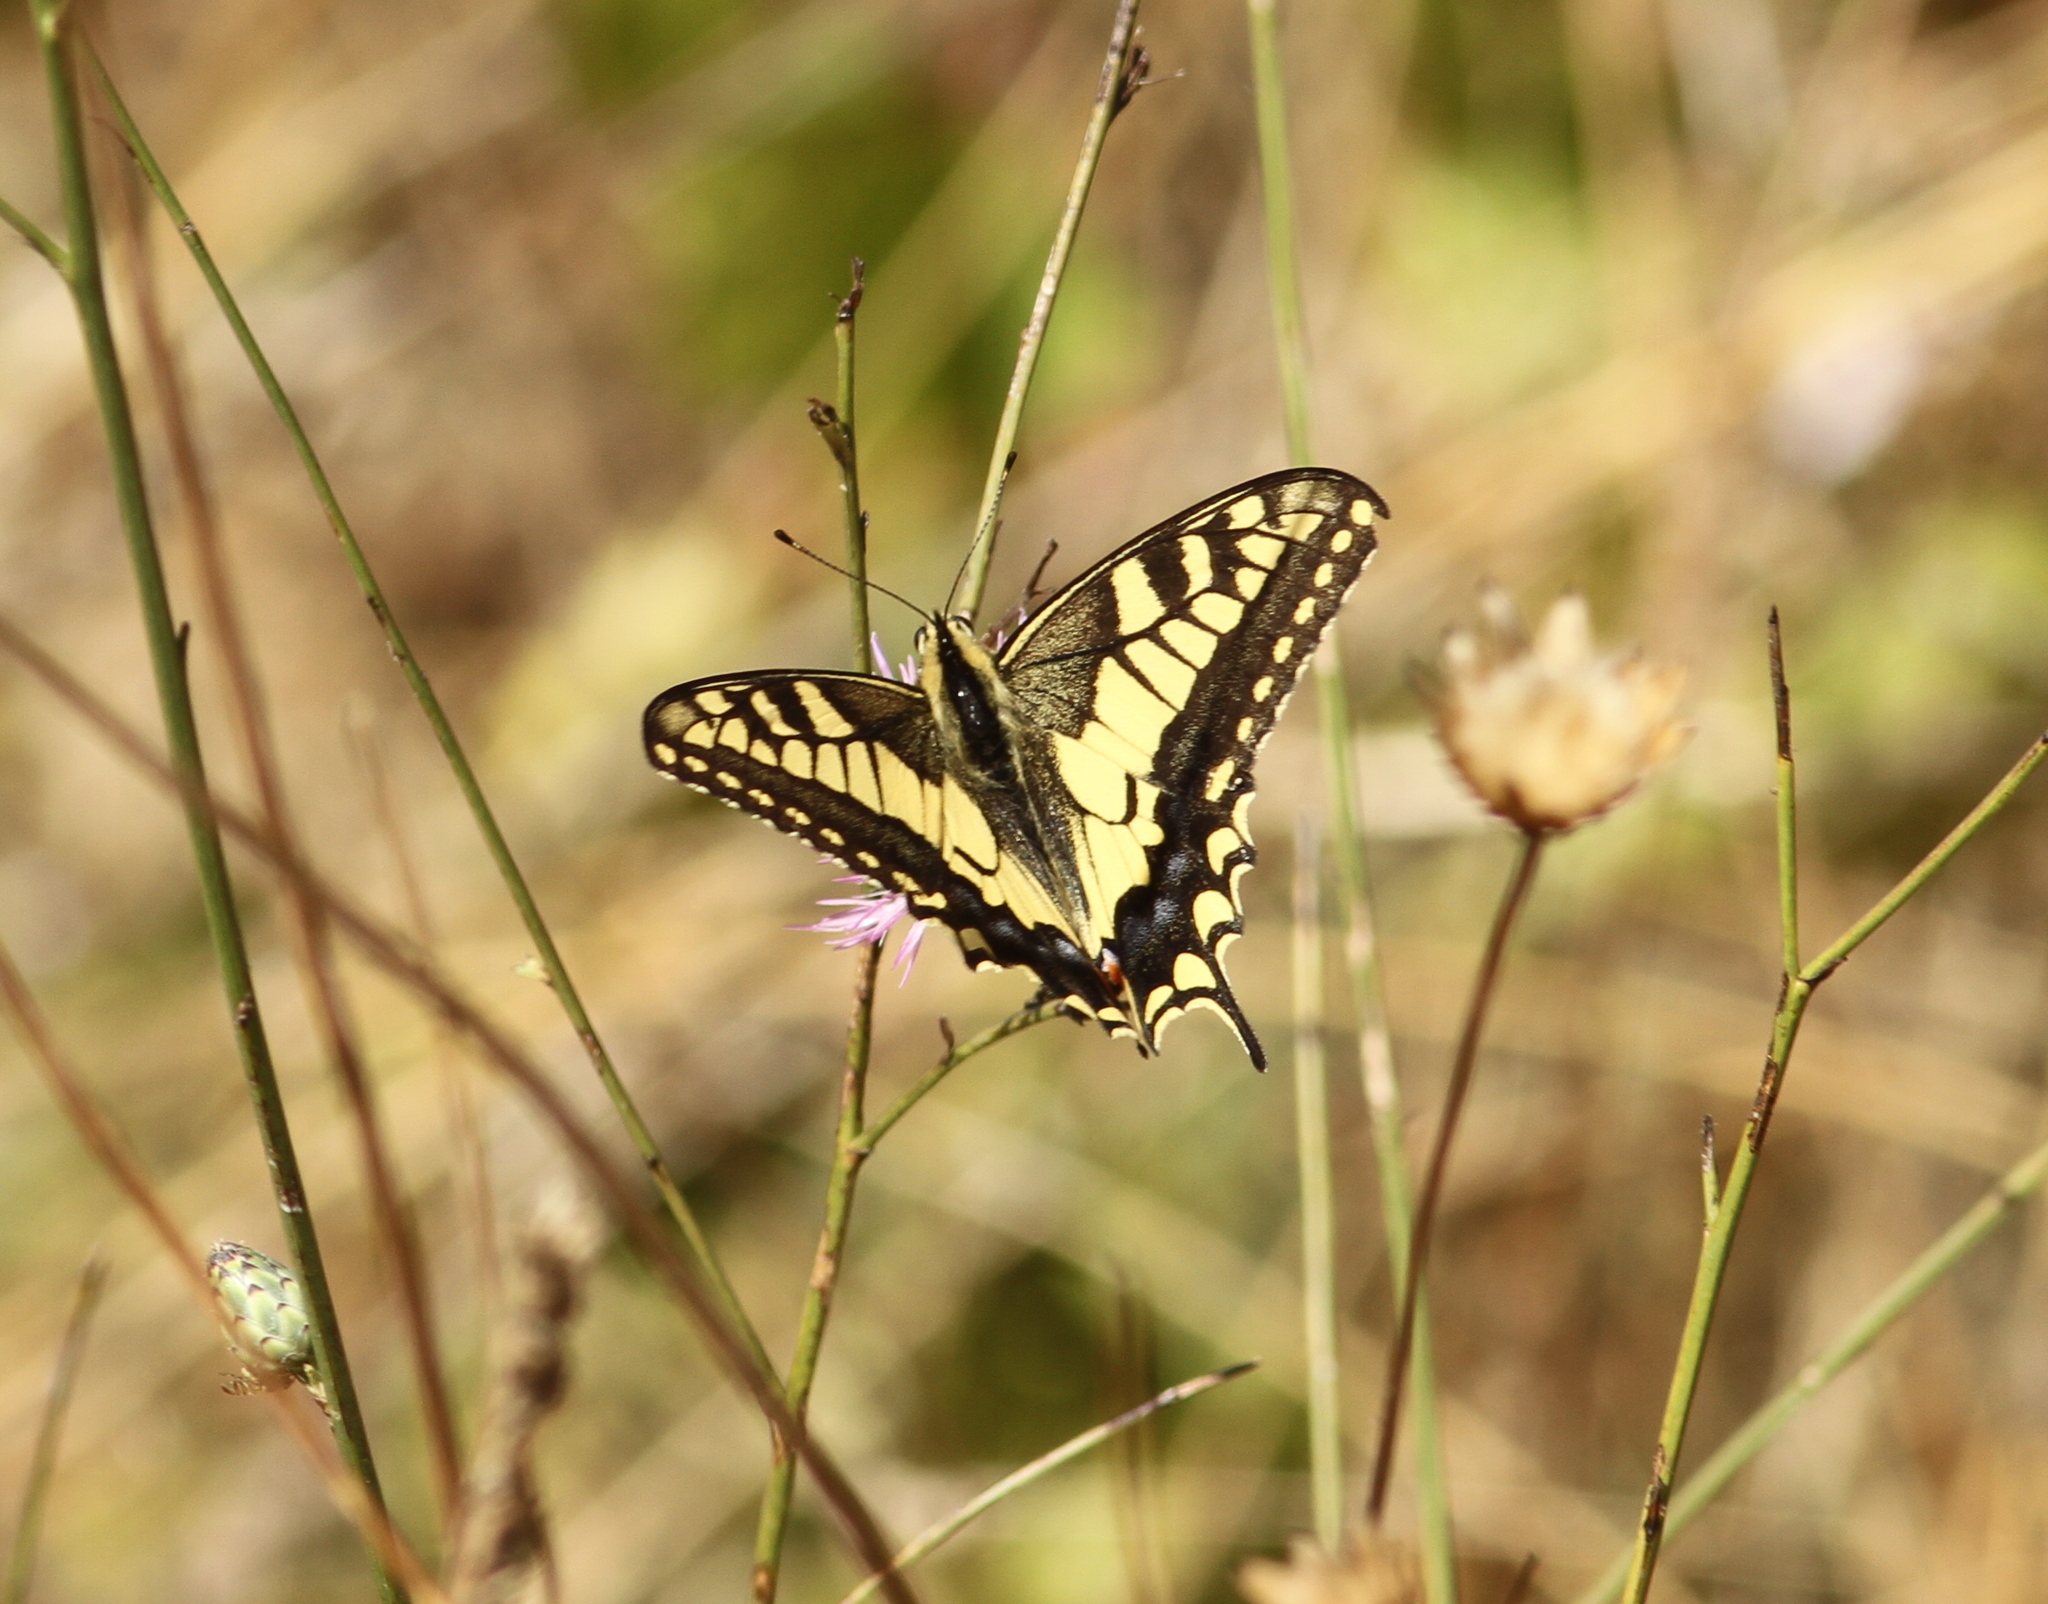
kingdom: Animalia
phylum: Arthropoda
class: Insecta
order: Lepidoptera
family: Papilionidae
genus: Papilio
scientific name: Papilio machaon
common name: Swallowtail
